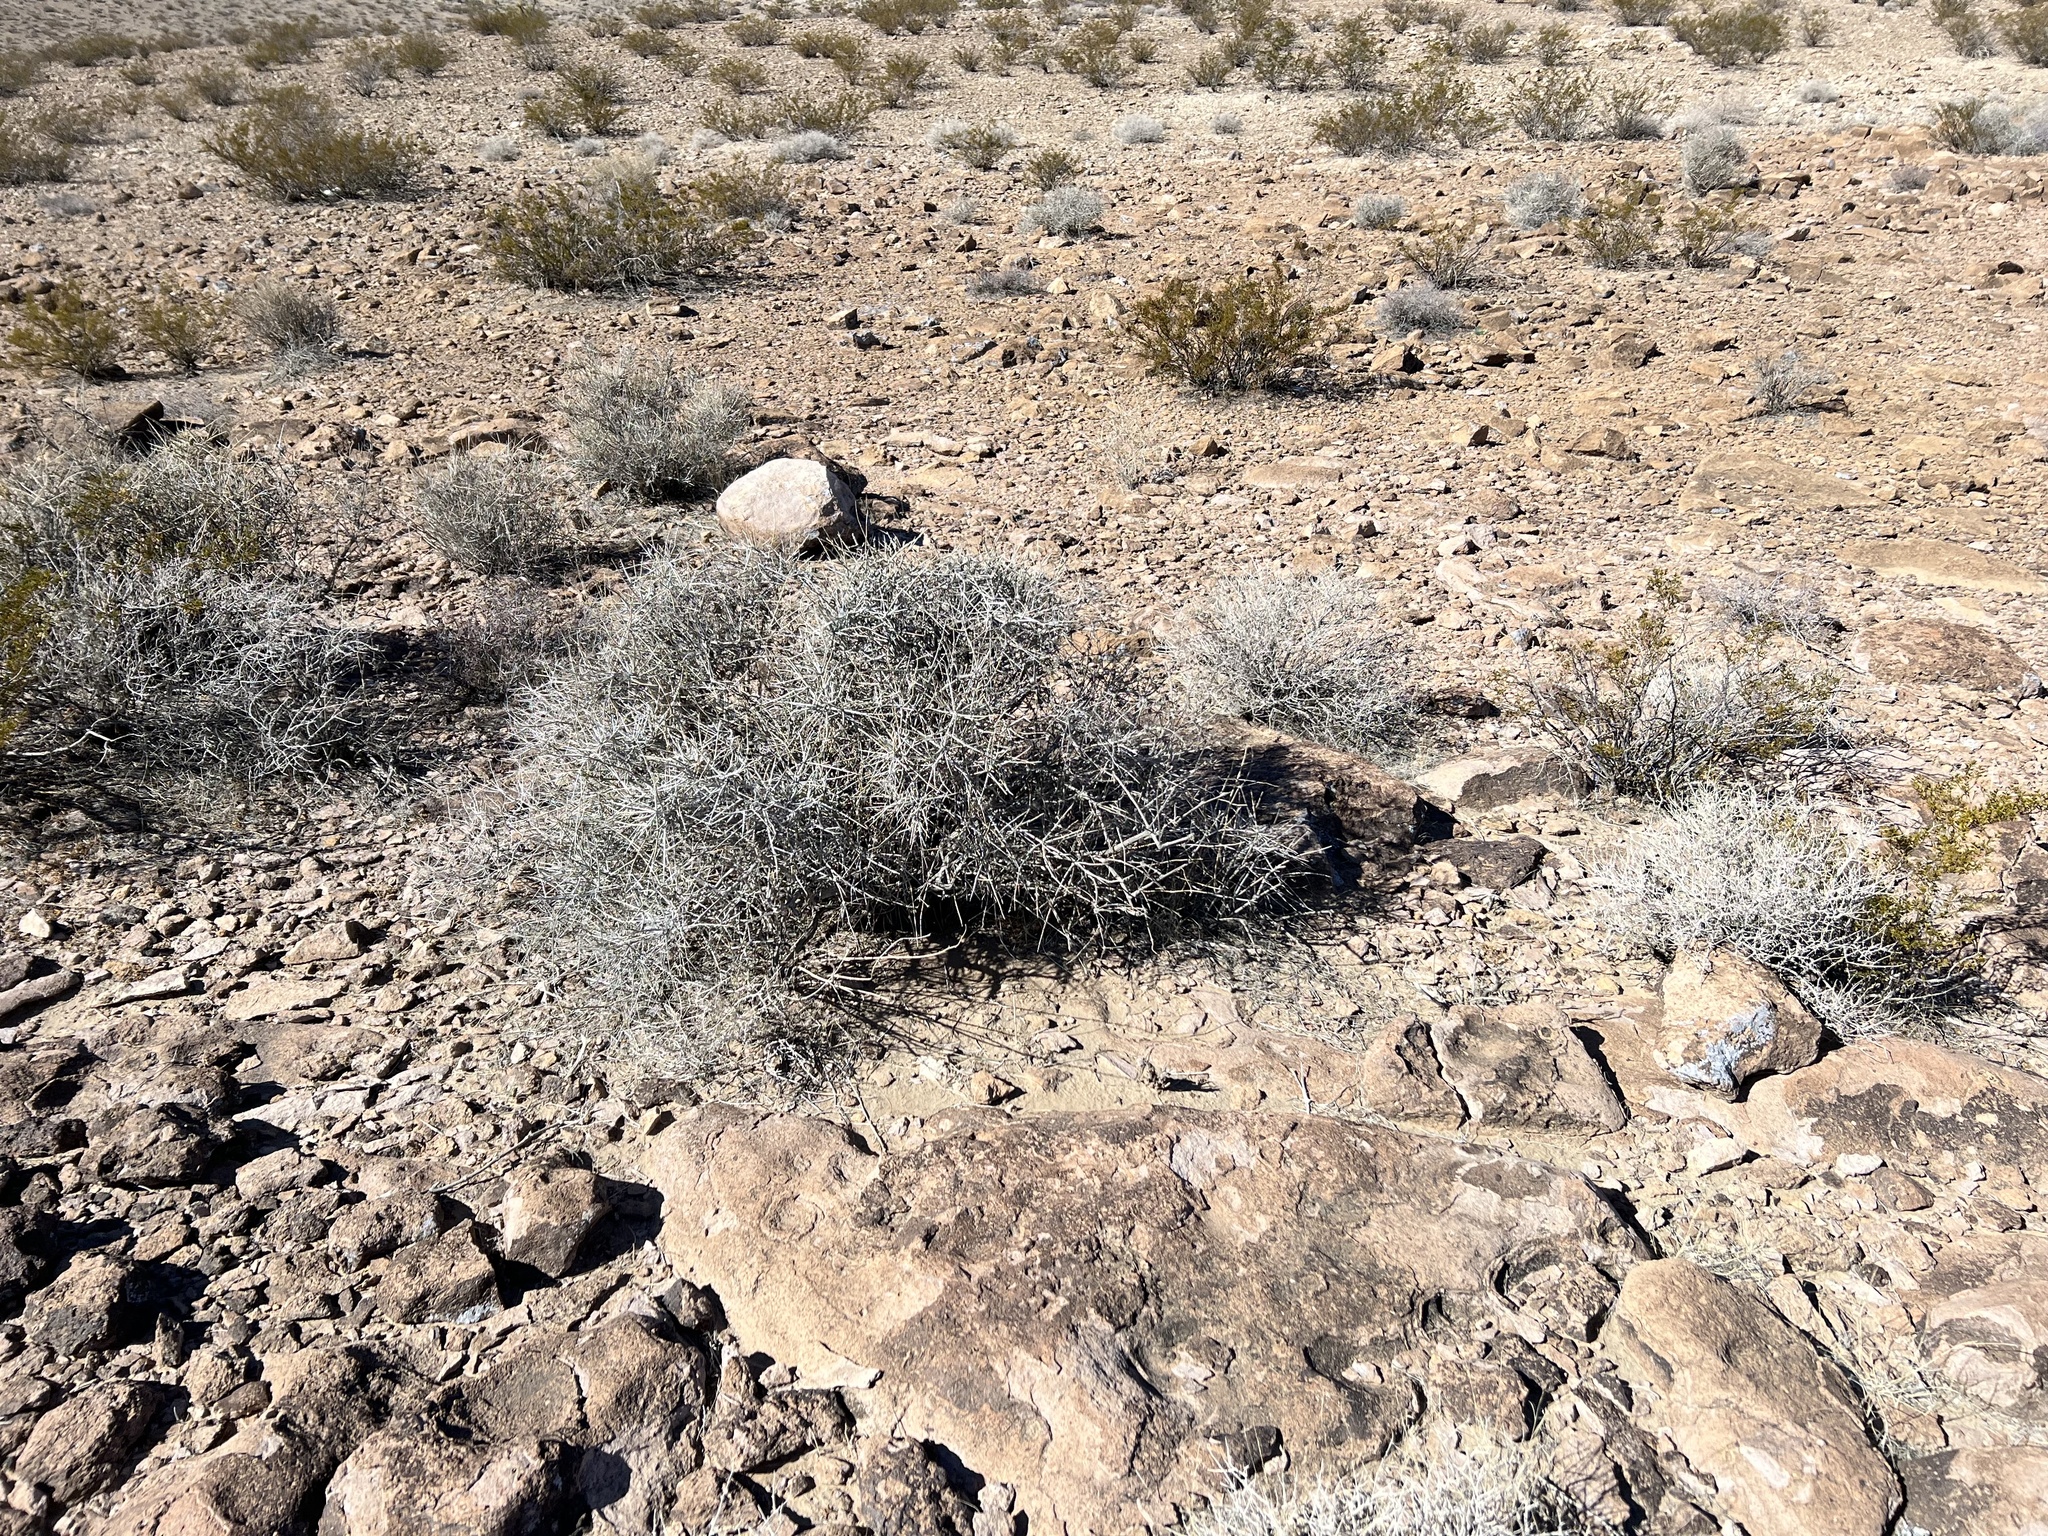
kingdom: Plantae
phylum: Tracheophyta
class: Gnetopsida
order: Ephedrales
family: Ephedraceae
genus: Ephedra
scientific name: Ephedra nevadensis
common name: Gray ephedra
